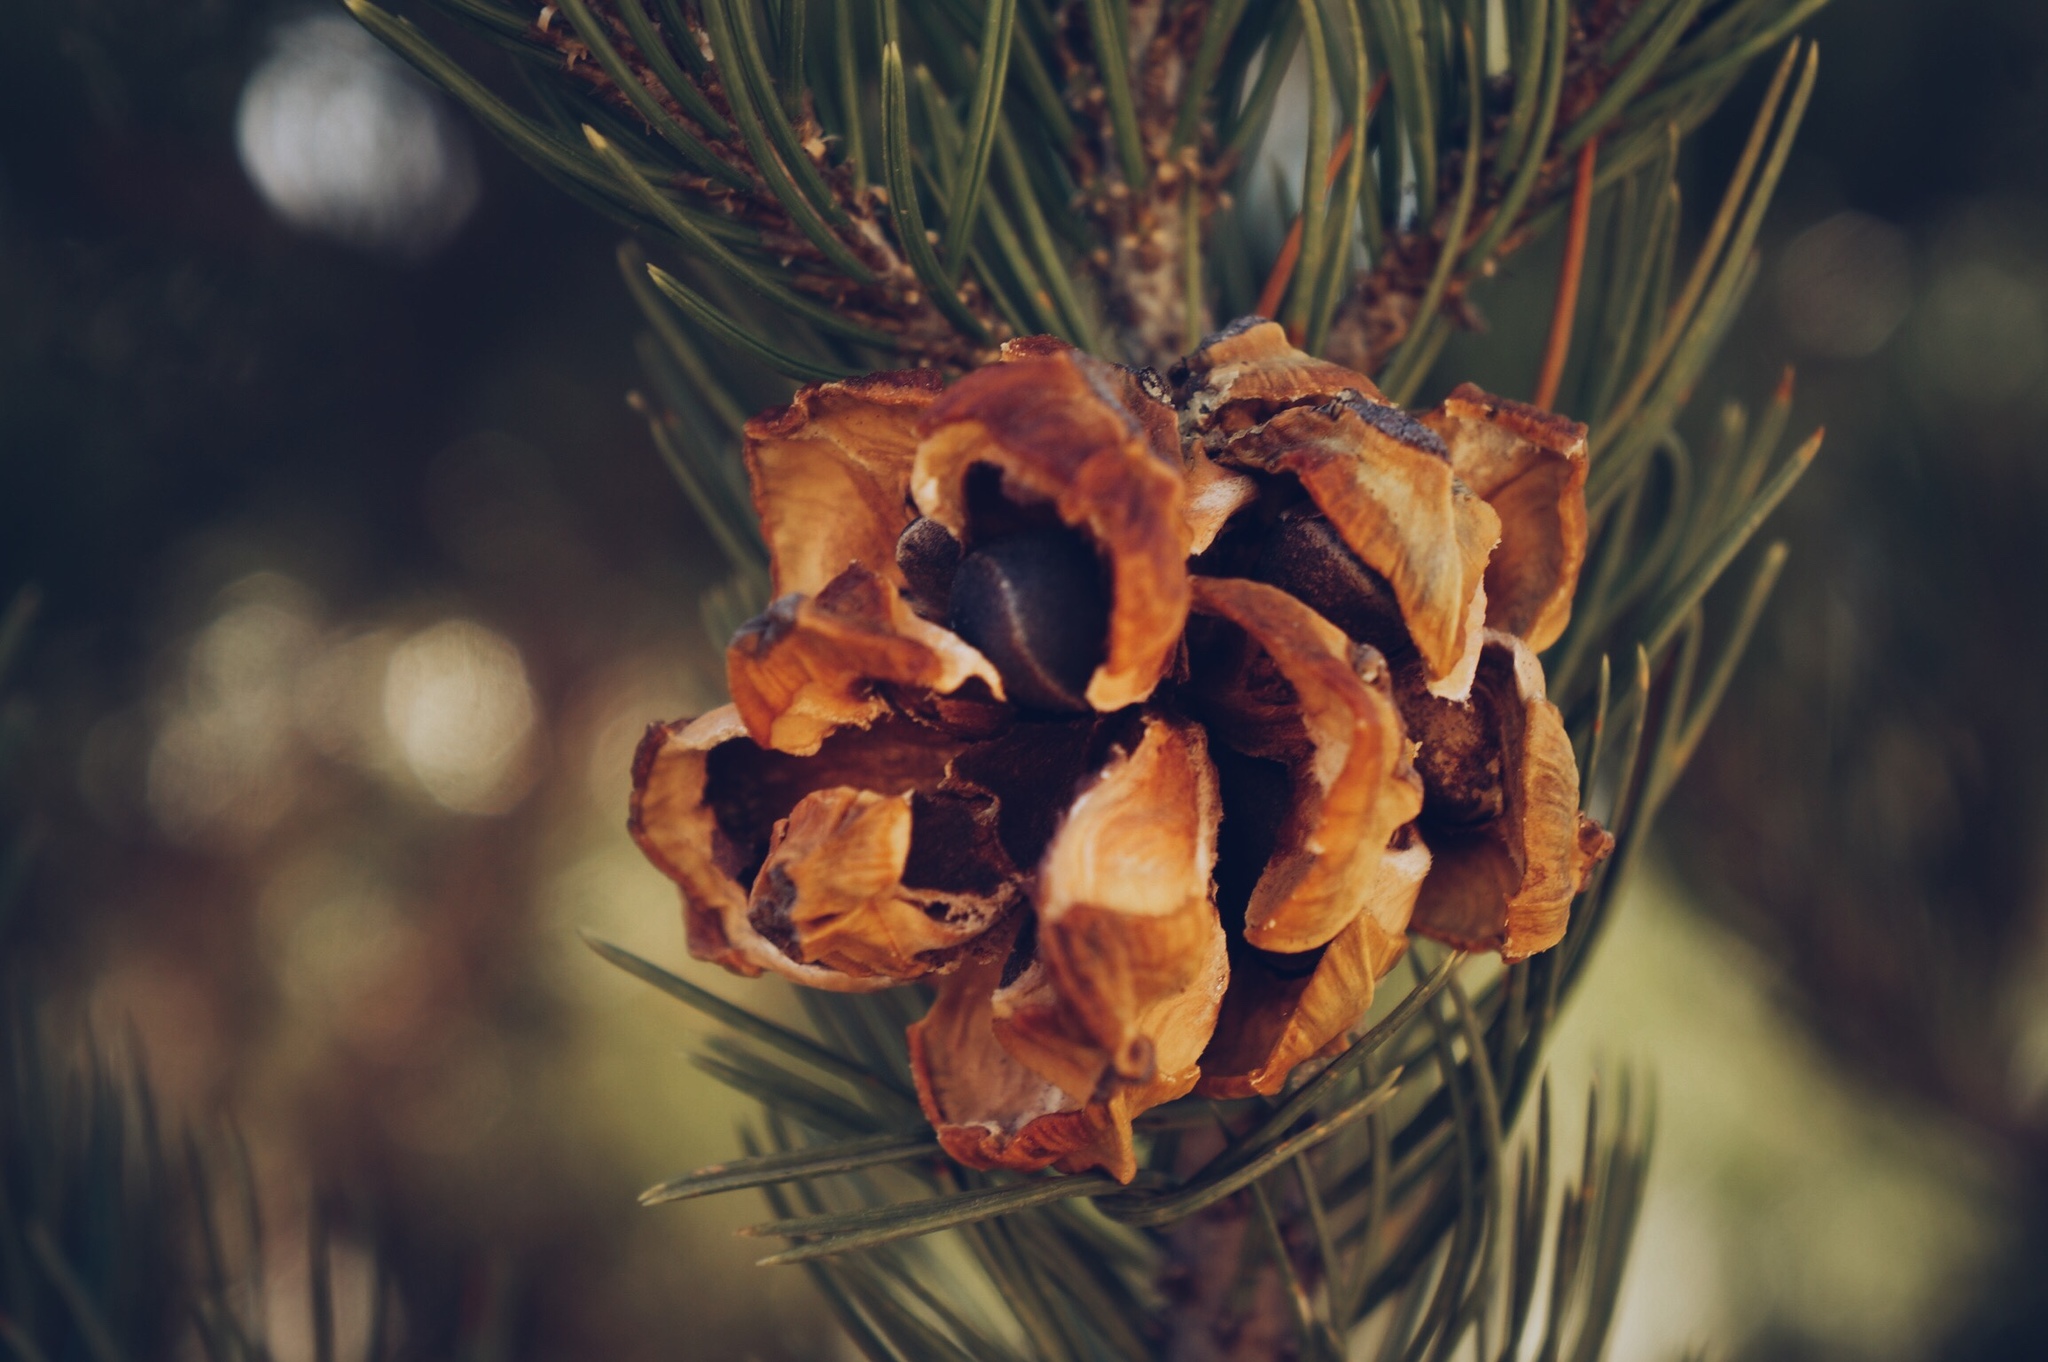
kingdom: Plantae
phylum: Tracheophyta
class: Pinopsida
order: Pinales
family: Pinaceae
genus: Pinus
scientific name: Pinus cembroides
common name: Mexican nut pine
